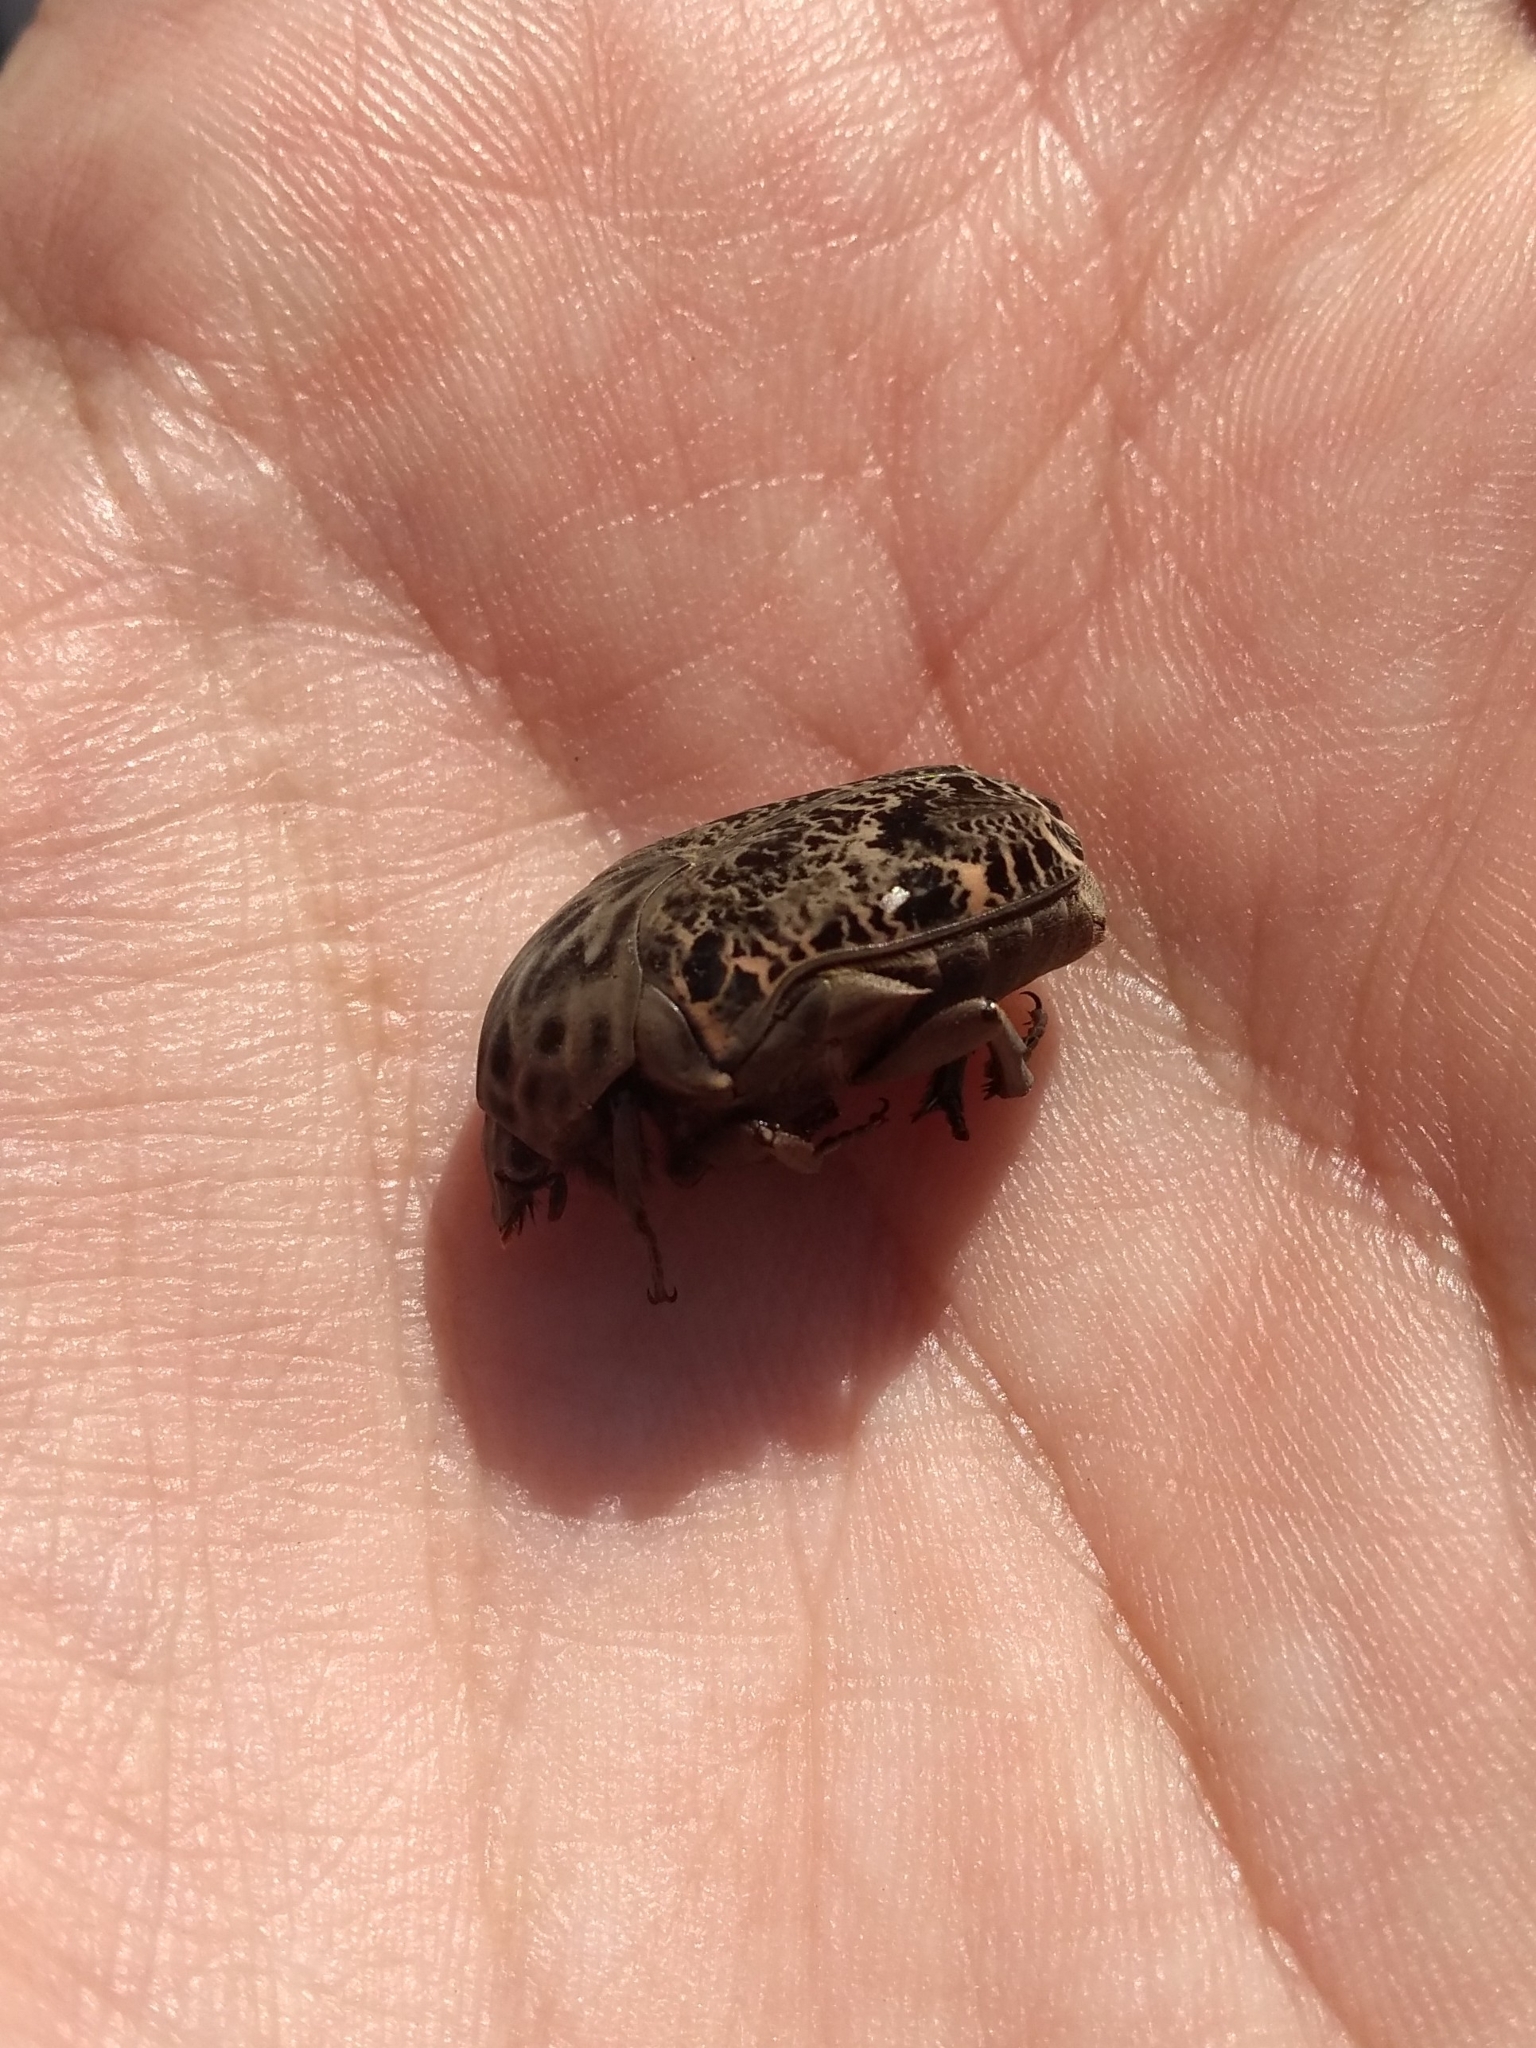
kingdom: Animalia
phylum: Arthropoda
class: Insecta
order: Coleoptera
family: Scarabaeidae
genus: Gymnetis
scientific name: Gymnetis chalcipes
